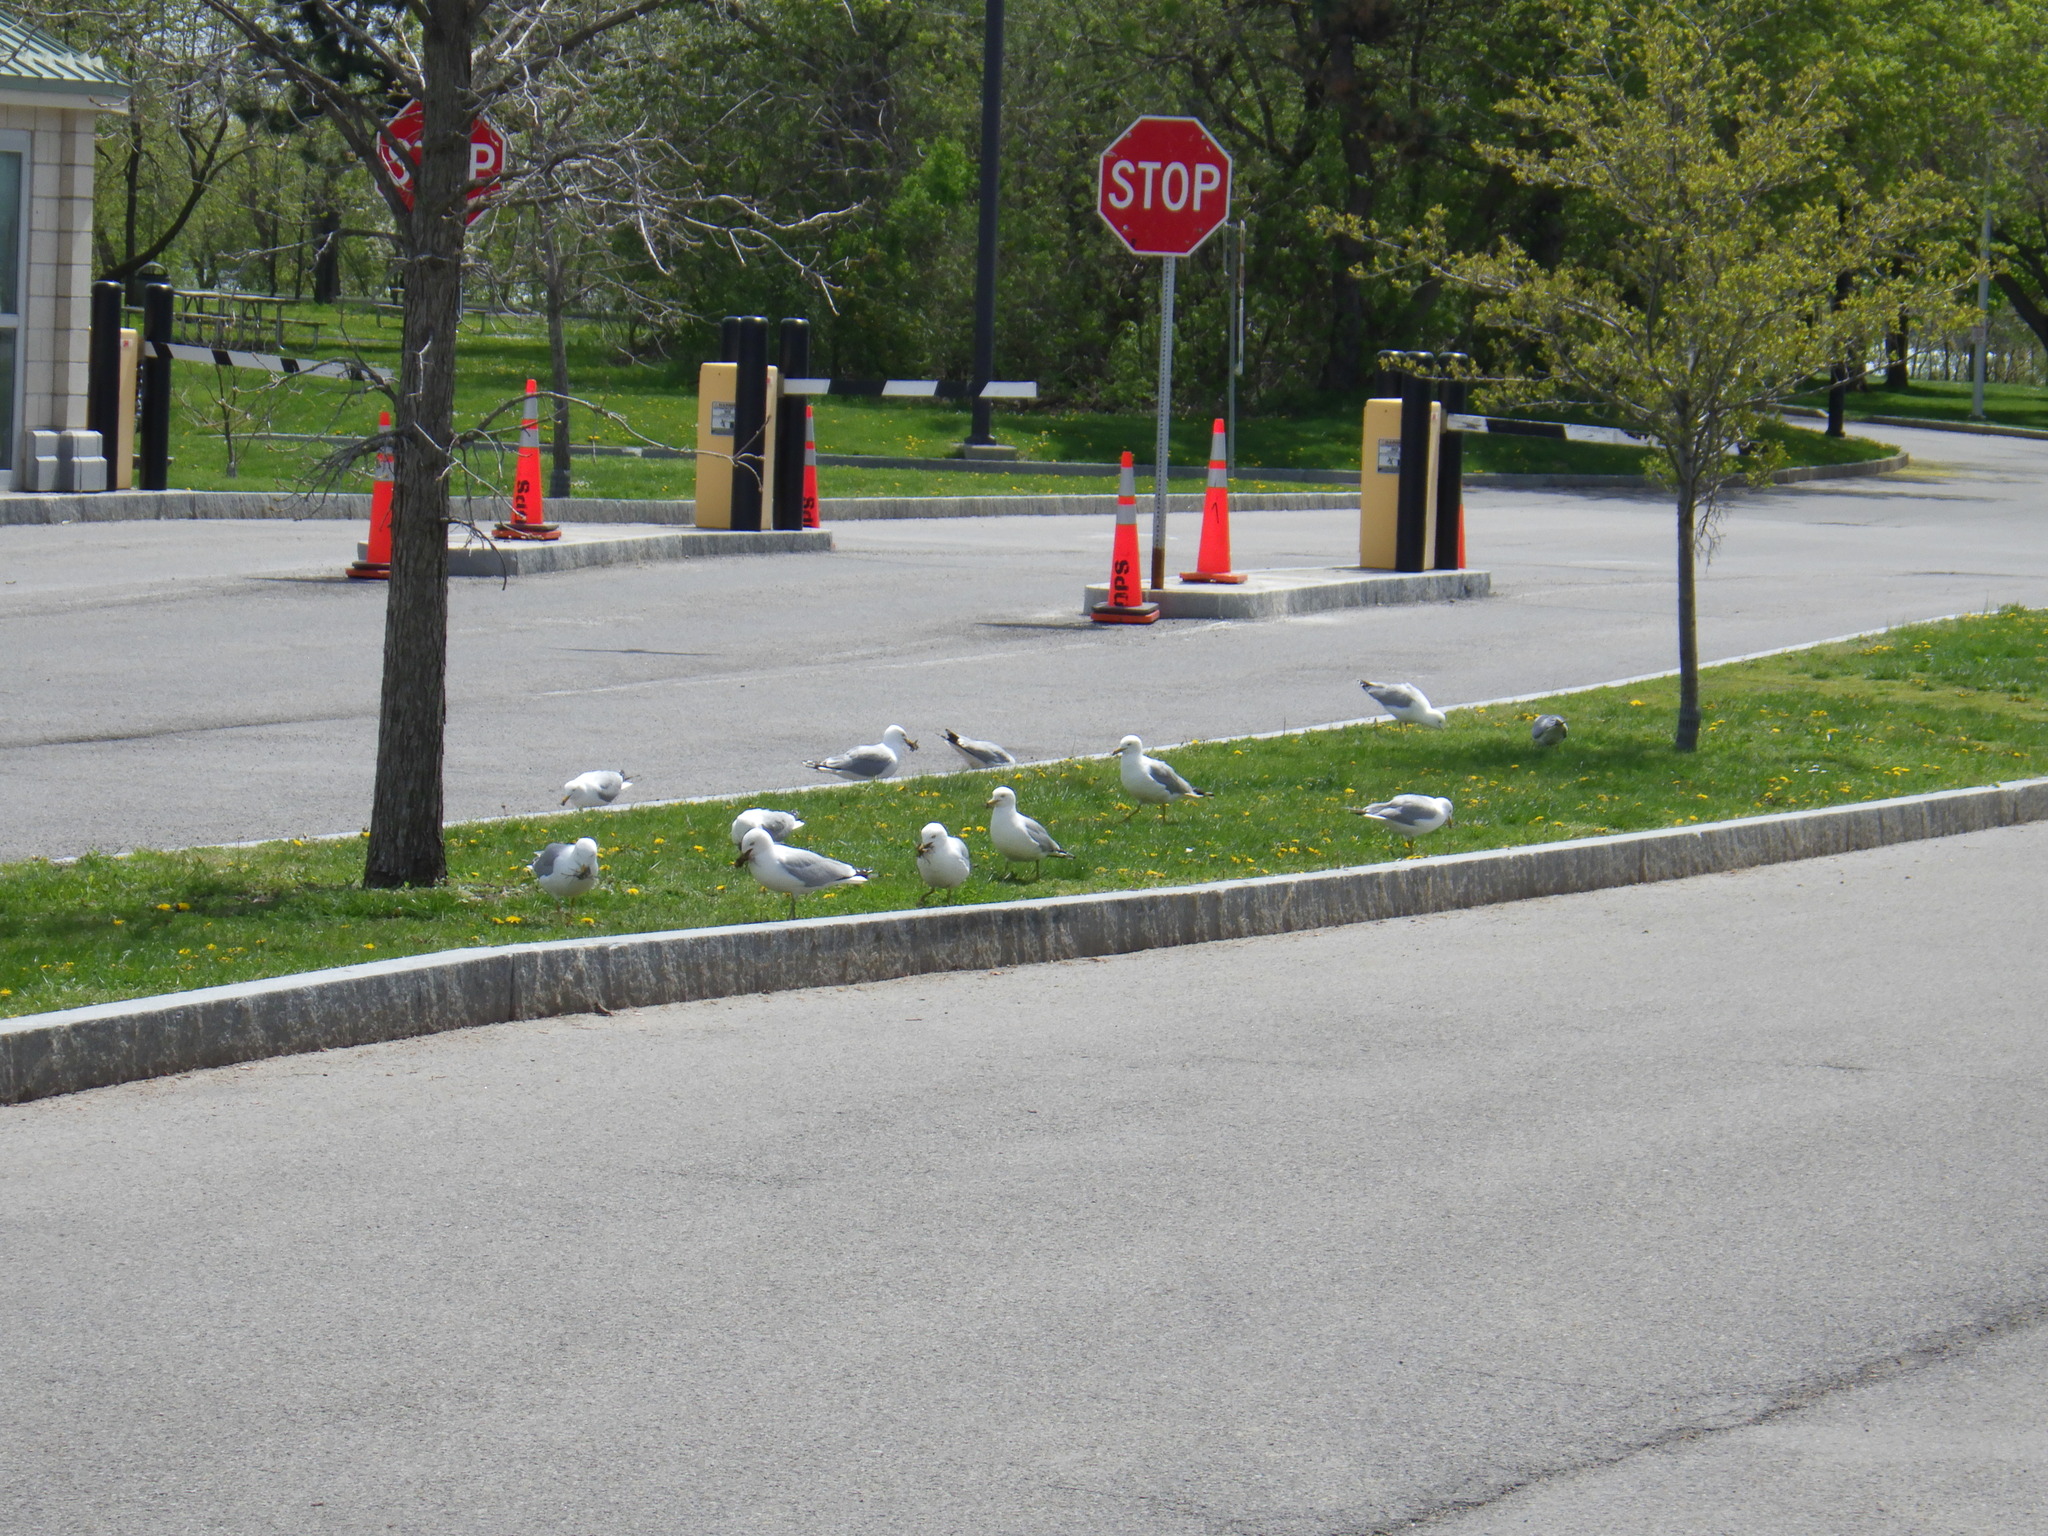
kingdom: Animalia
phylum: Chordata
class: Aves
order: Charadriiformes
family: Laridae
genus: Larus
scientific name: Larus delawarensis
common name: Ring-billed gull
